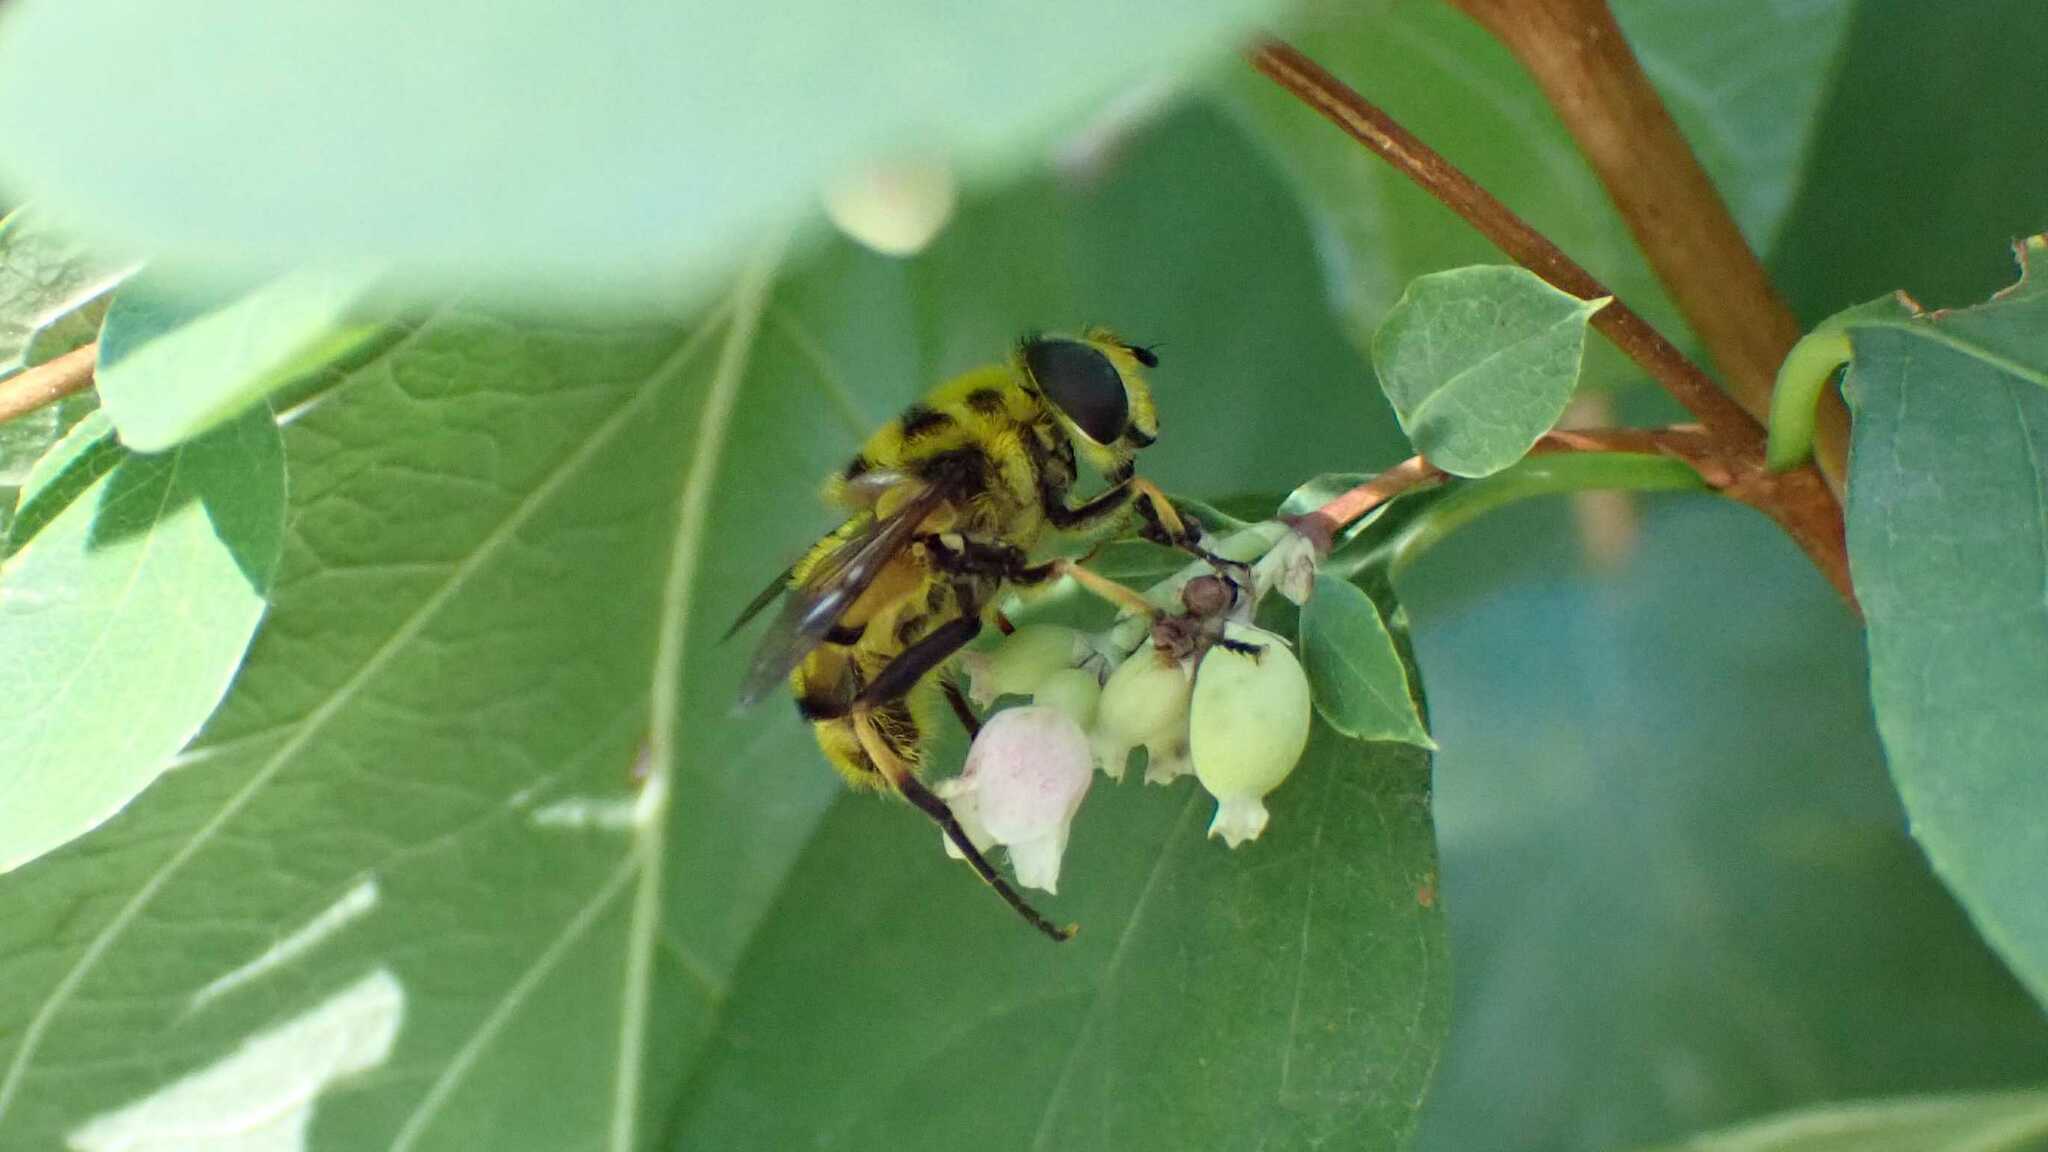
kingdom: Animalia
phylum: Arthropoda
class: Insecta
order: Diptera
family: Syrphidae
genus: Myathropa
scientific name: Myathropa florea
